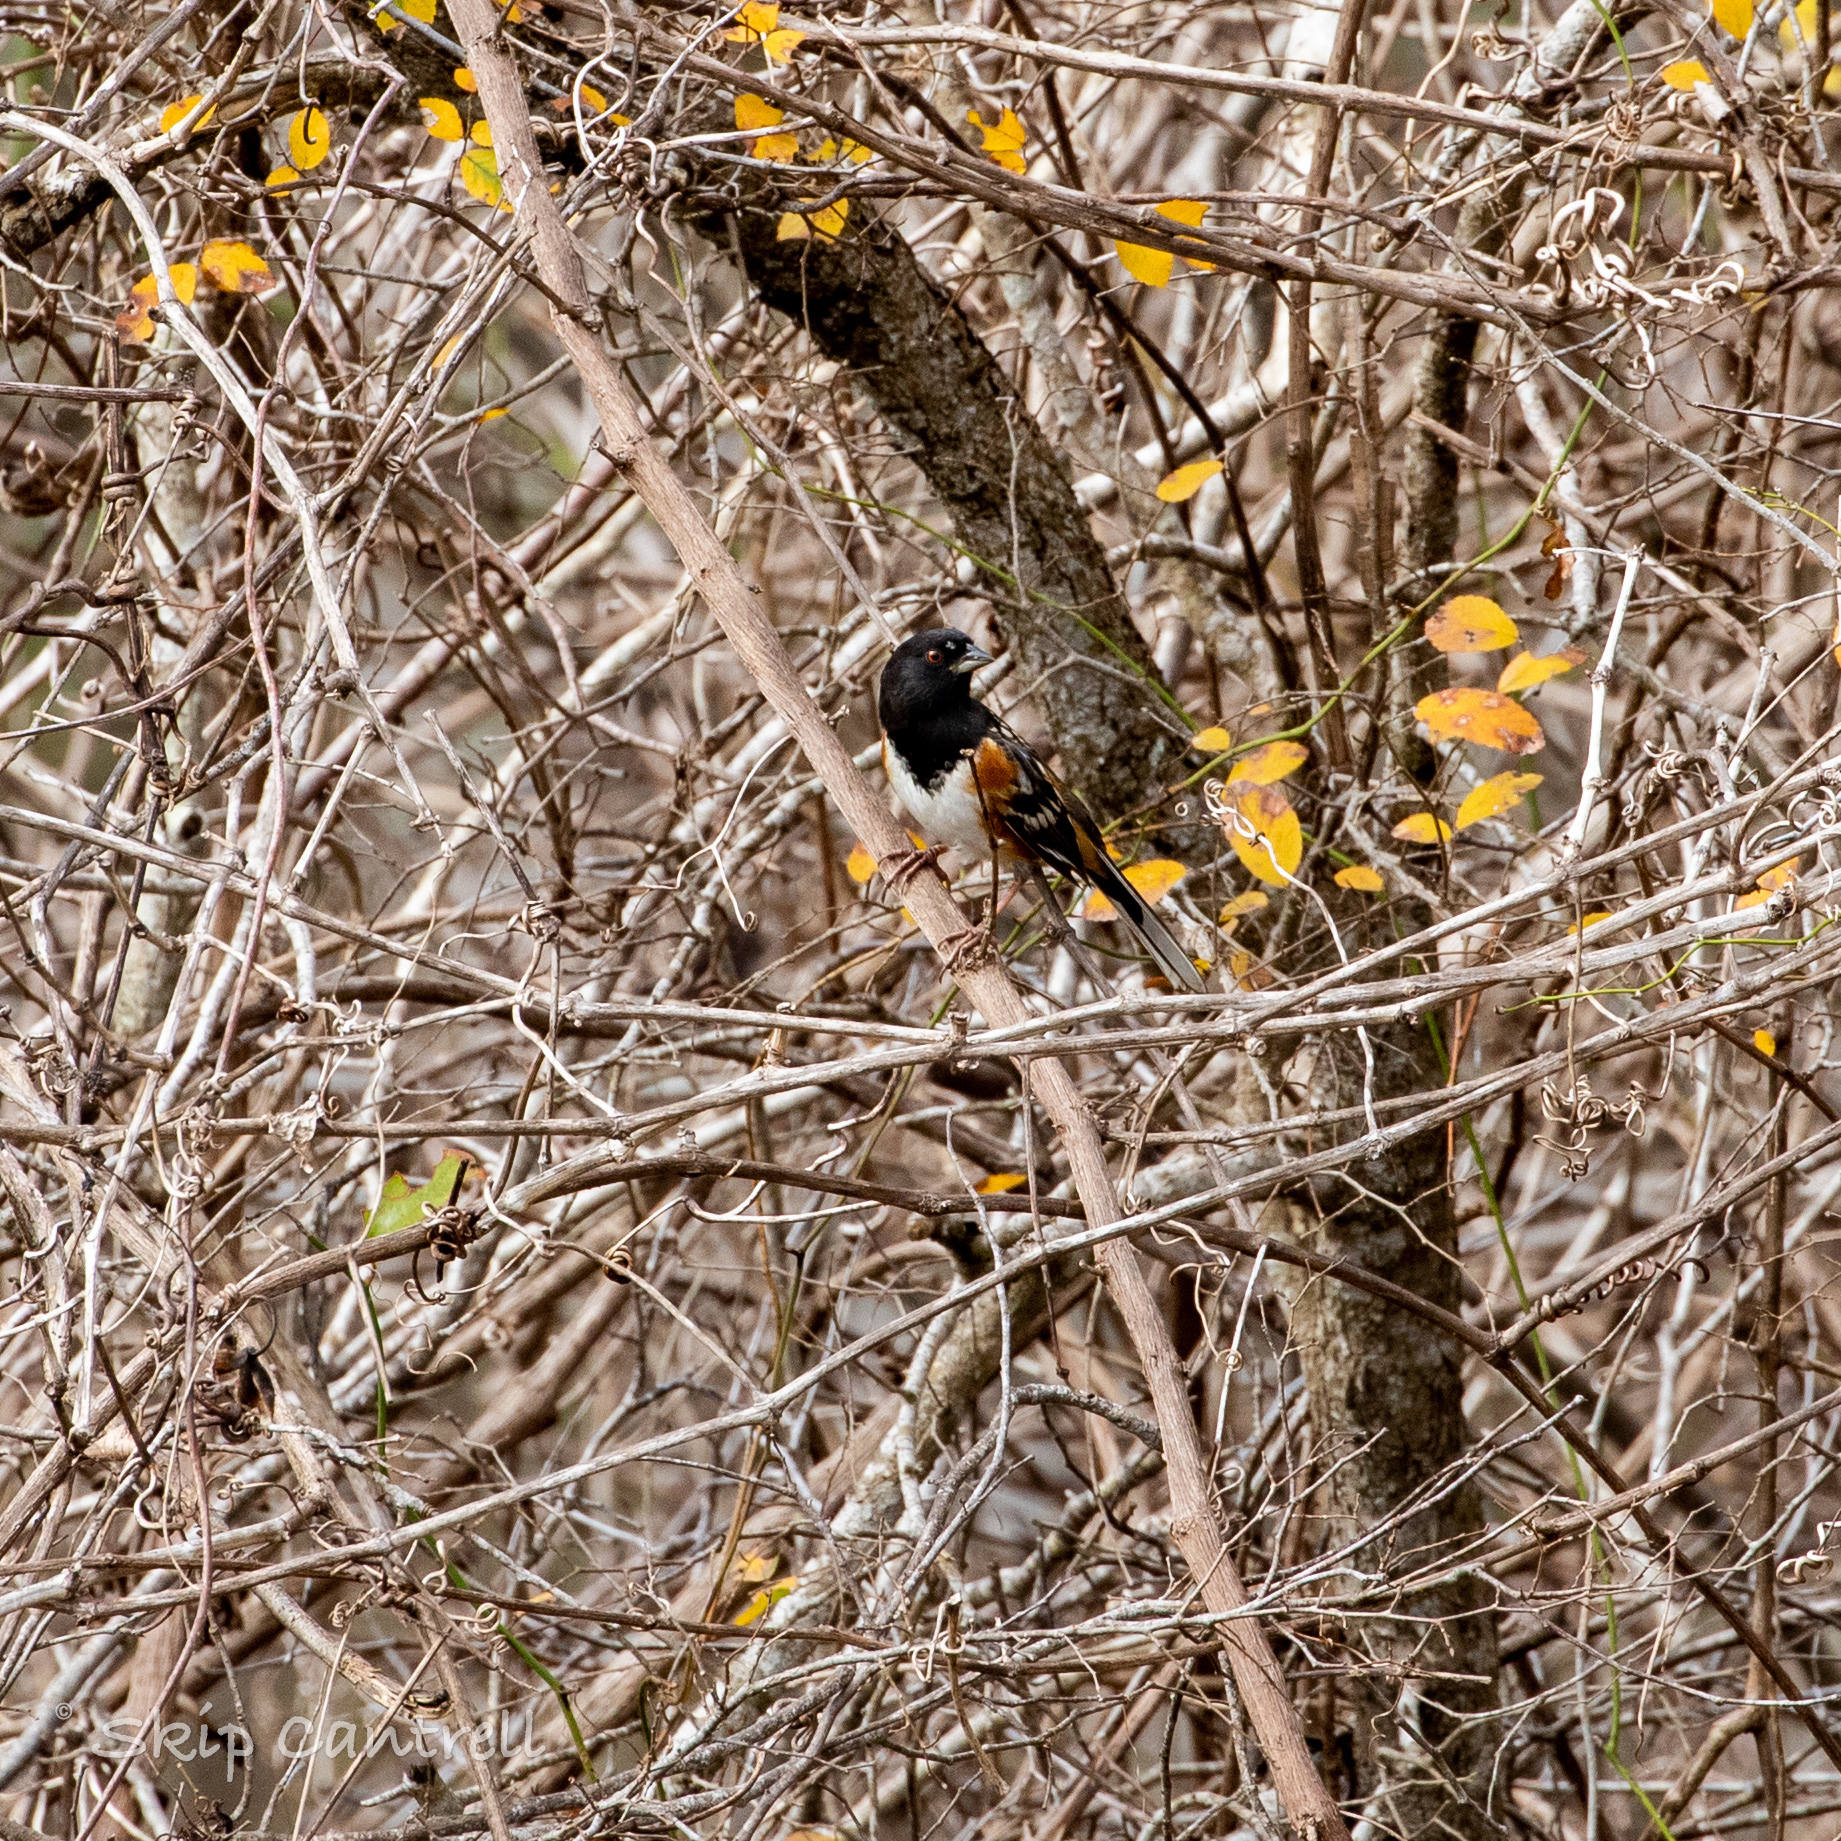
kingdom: Animalia
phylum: Chordata
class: Aves
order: Passeriformes
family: Passerellidae
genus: Pipilo
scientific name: Pipilo maculatus
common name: Spotted towhee
